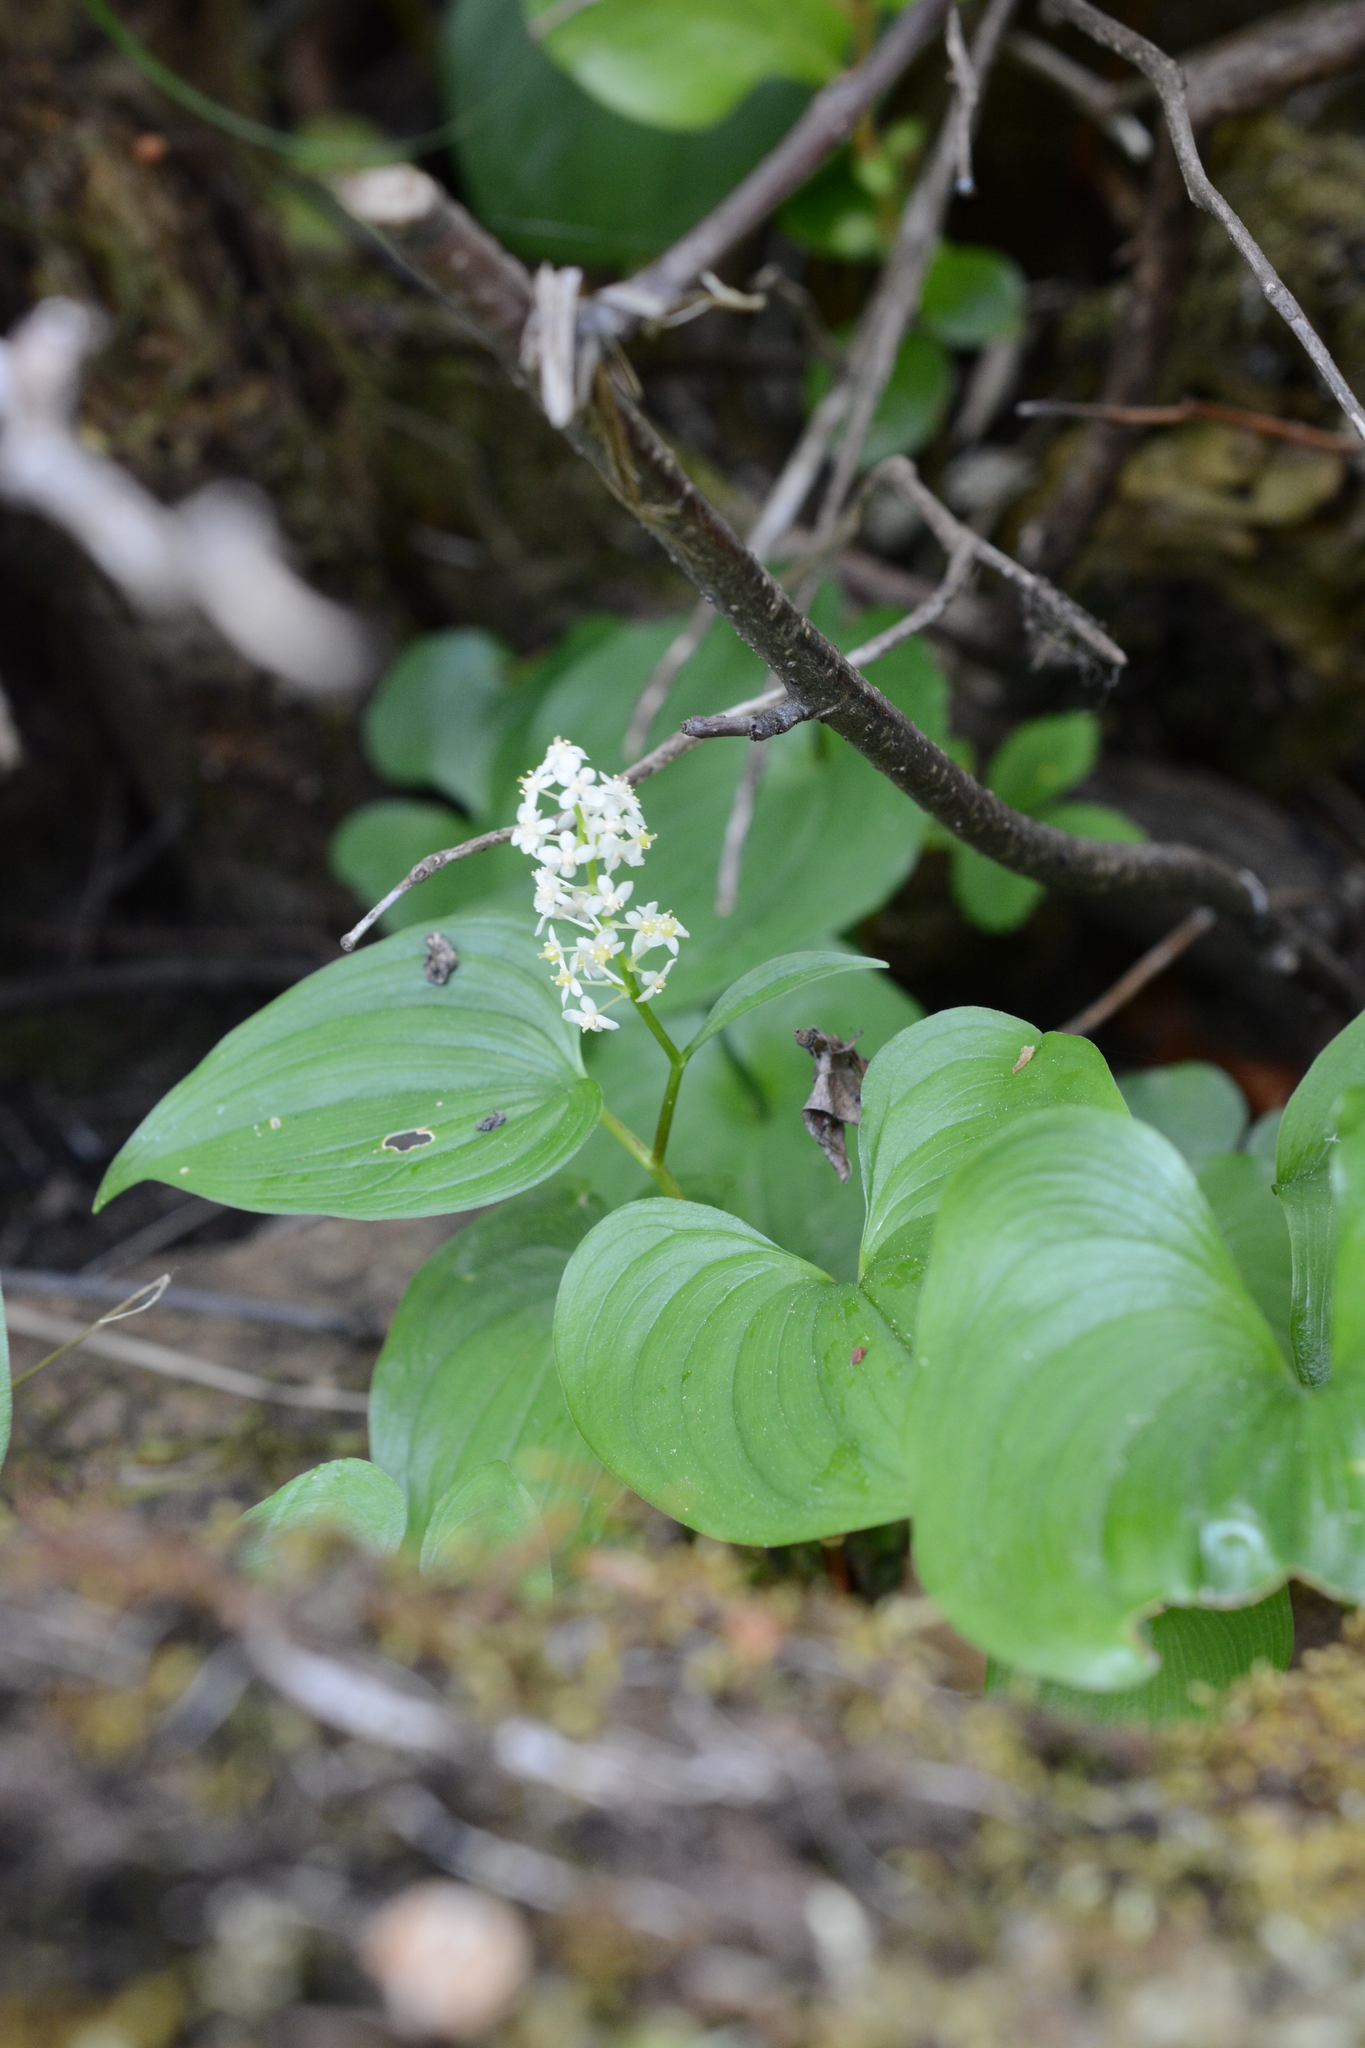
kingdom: Plantae
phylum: Tracheophyta
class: Liliopsida
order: Asparagales
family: Asparagaceae
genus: Maianthemum
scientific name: Maianthemum dilatatum
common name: False lily-of-the-valley
